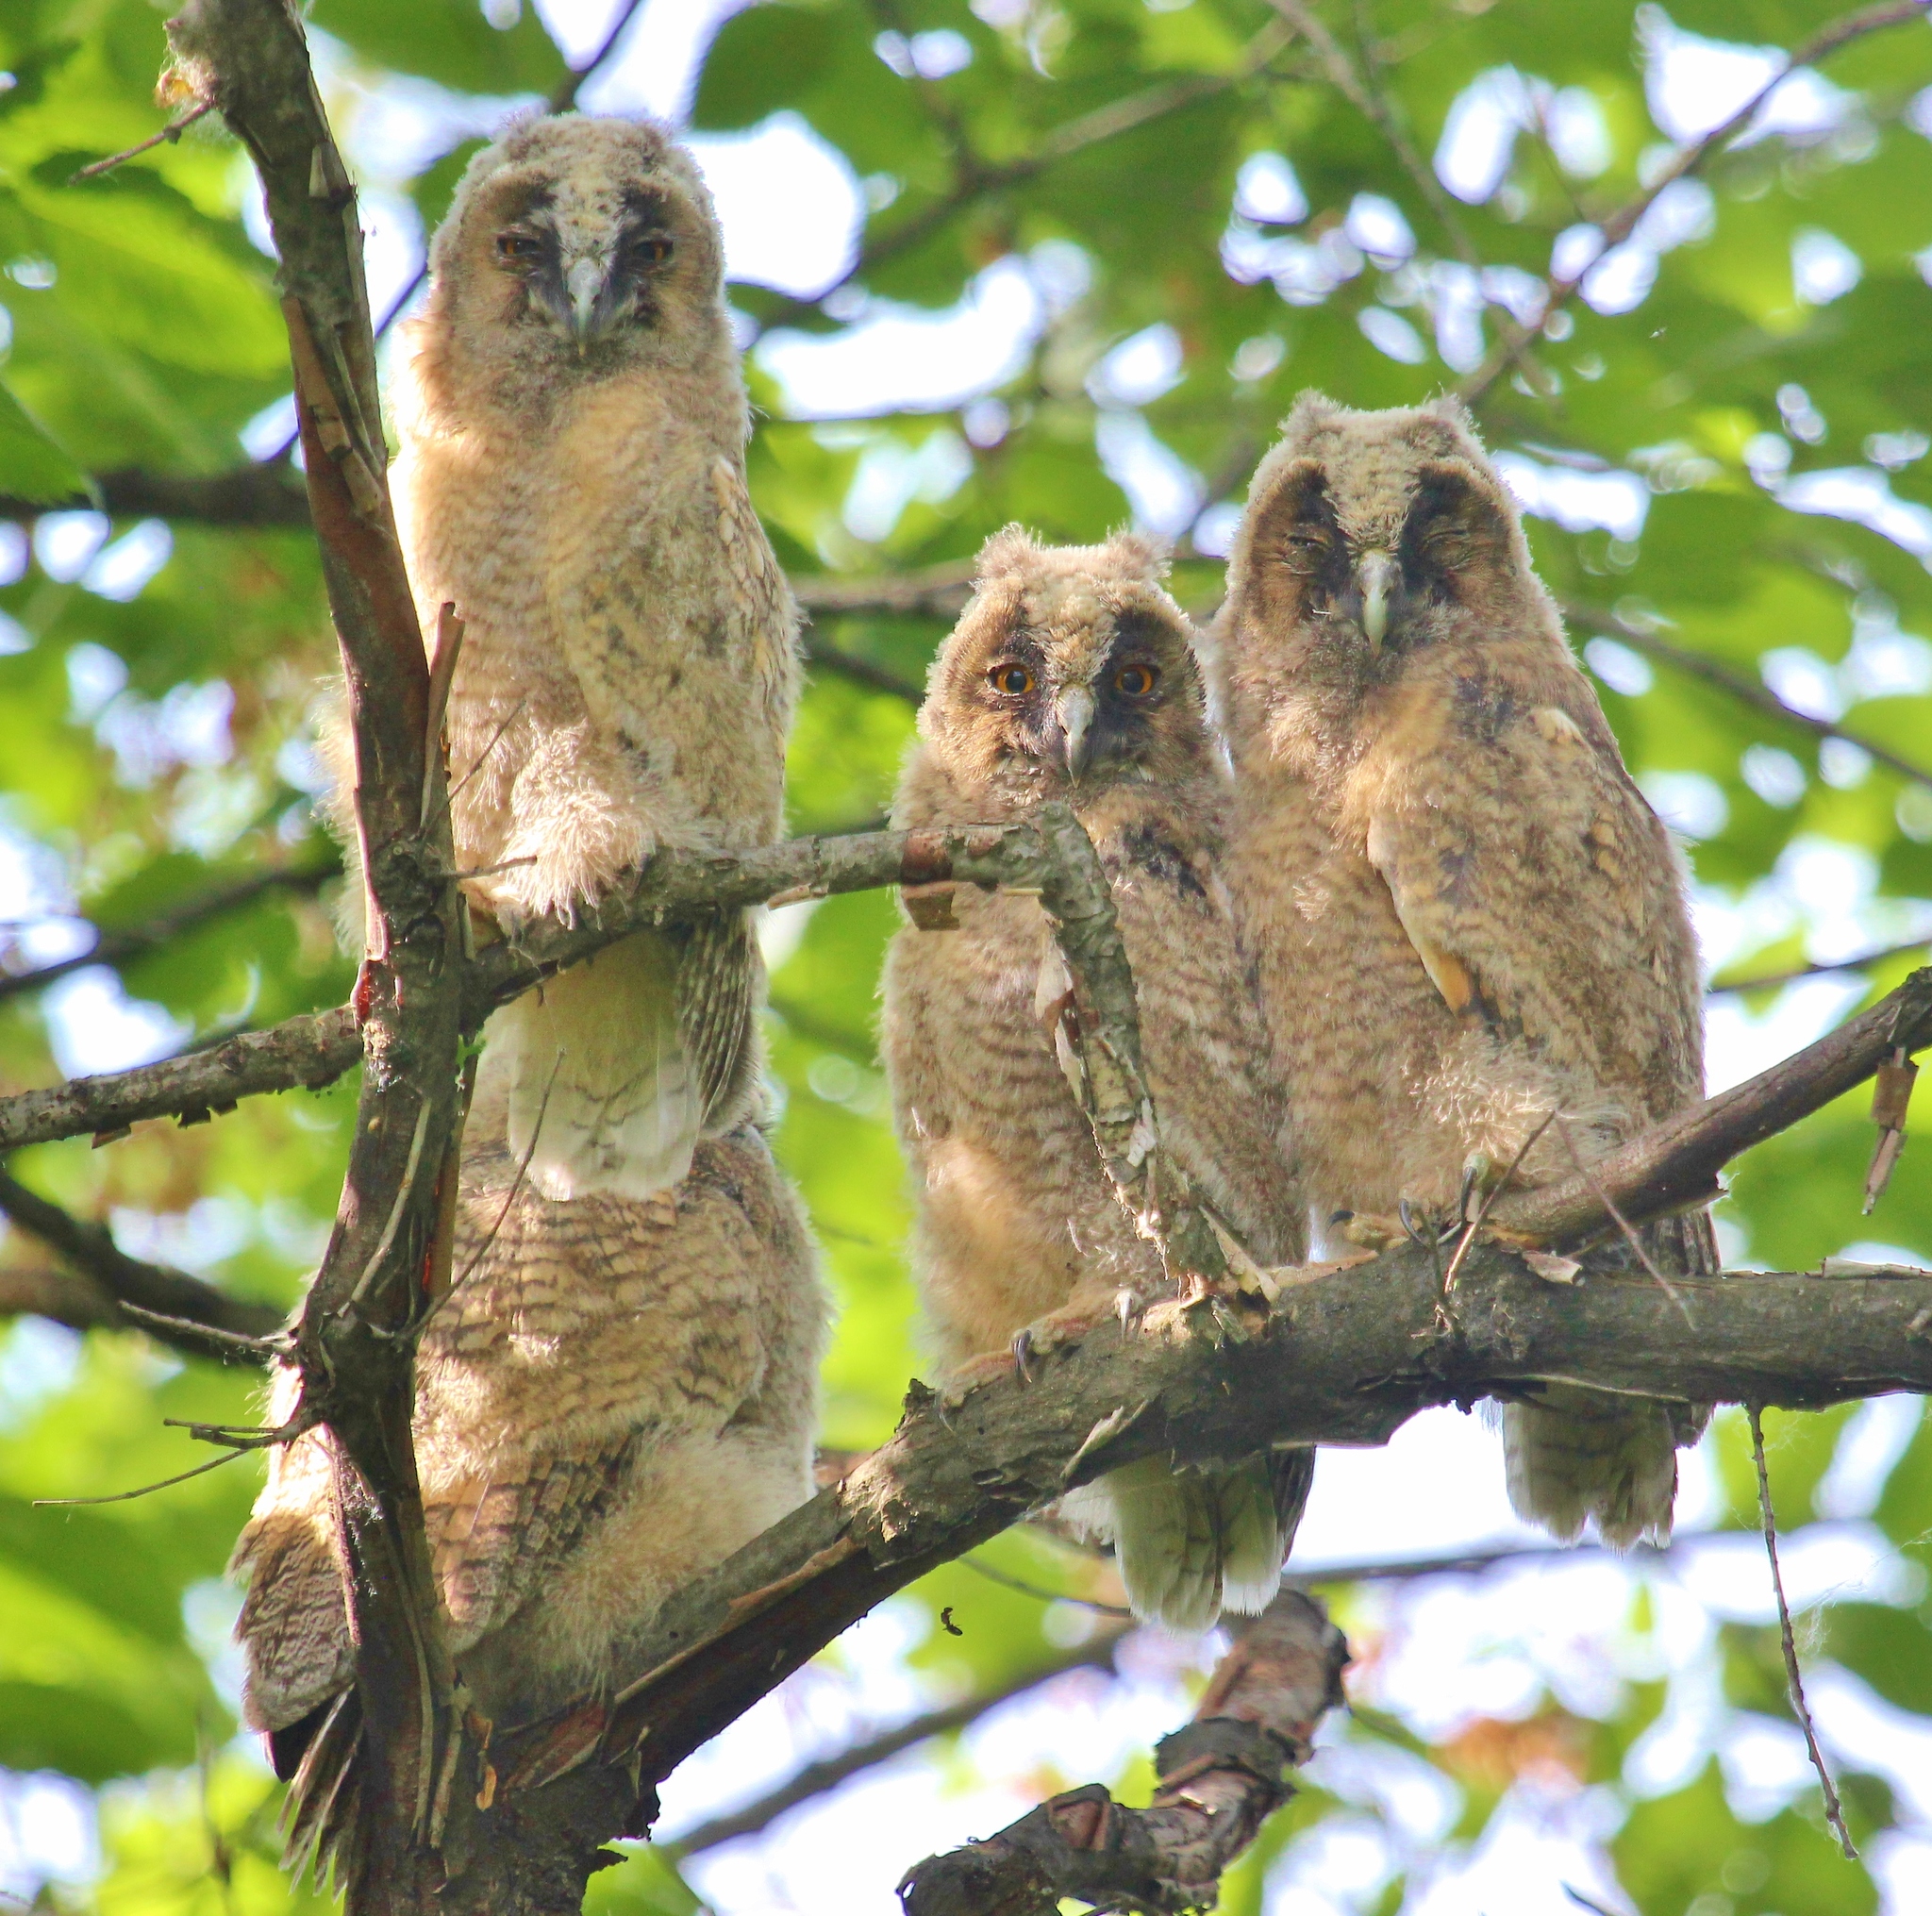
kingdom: Animalia
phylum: Chordata
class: Aves
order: Strigiformes
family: Strigidae
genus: Asio
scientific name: Asio otus
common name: Long-eared owl
